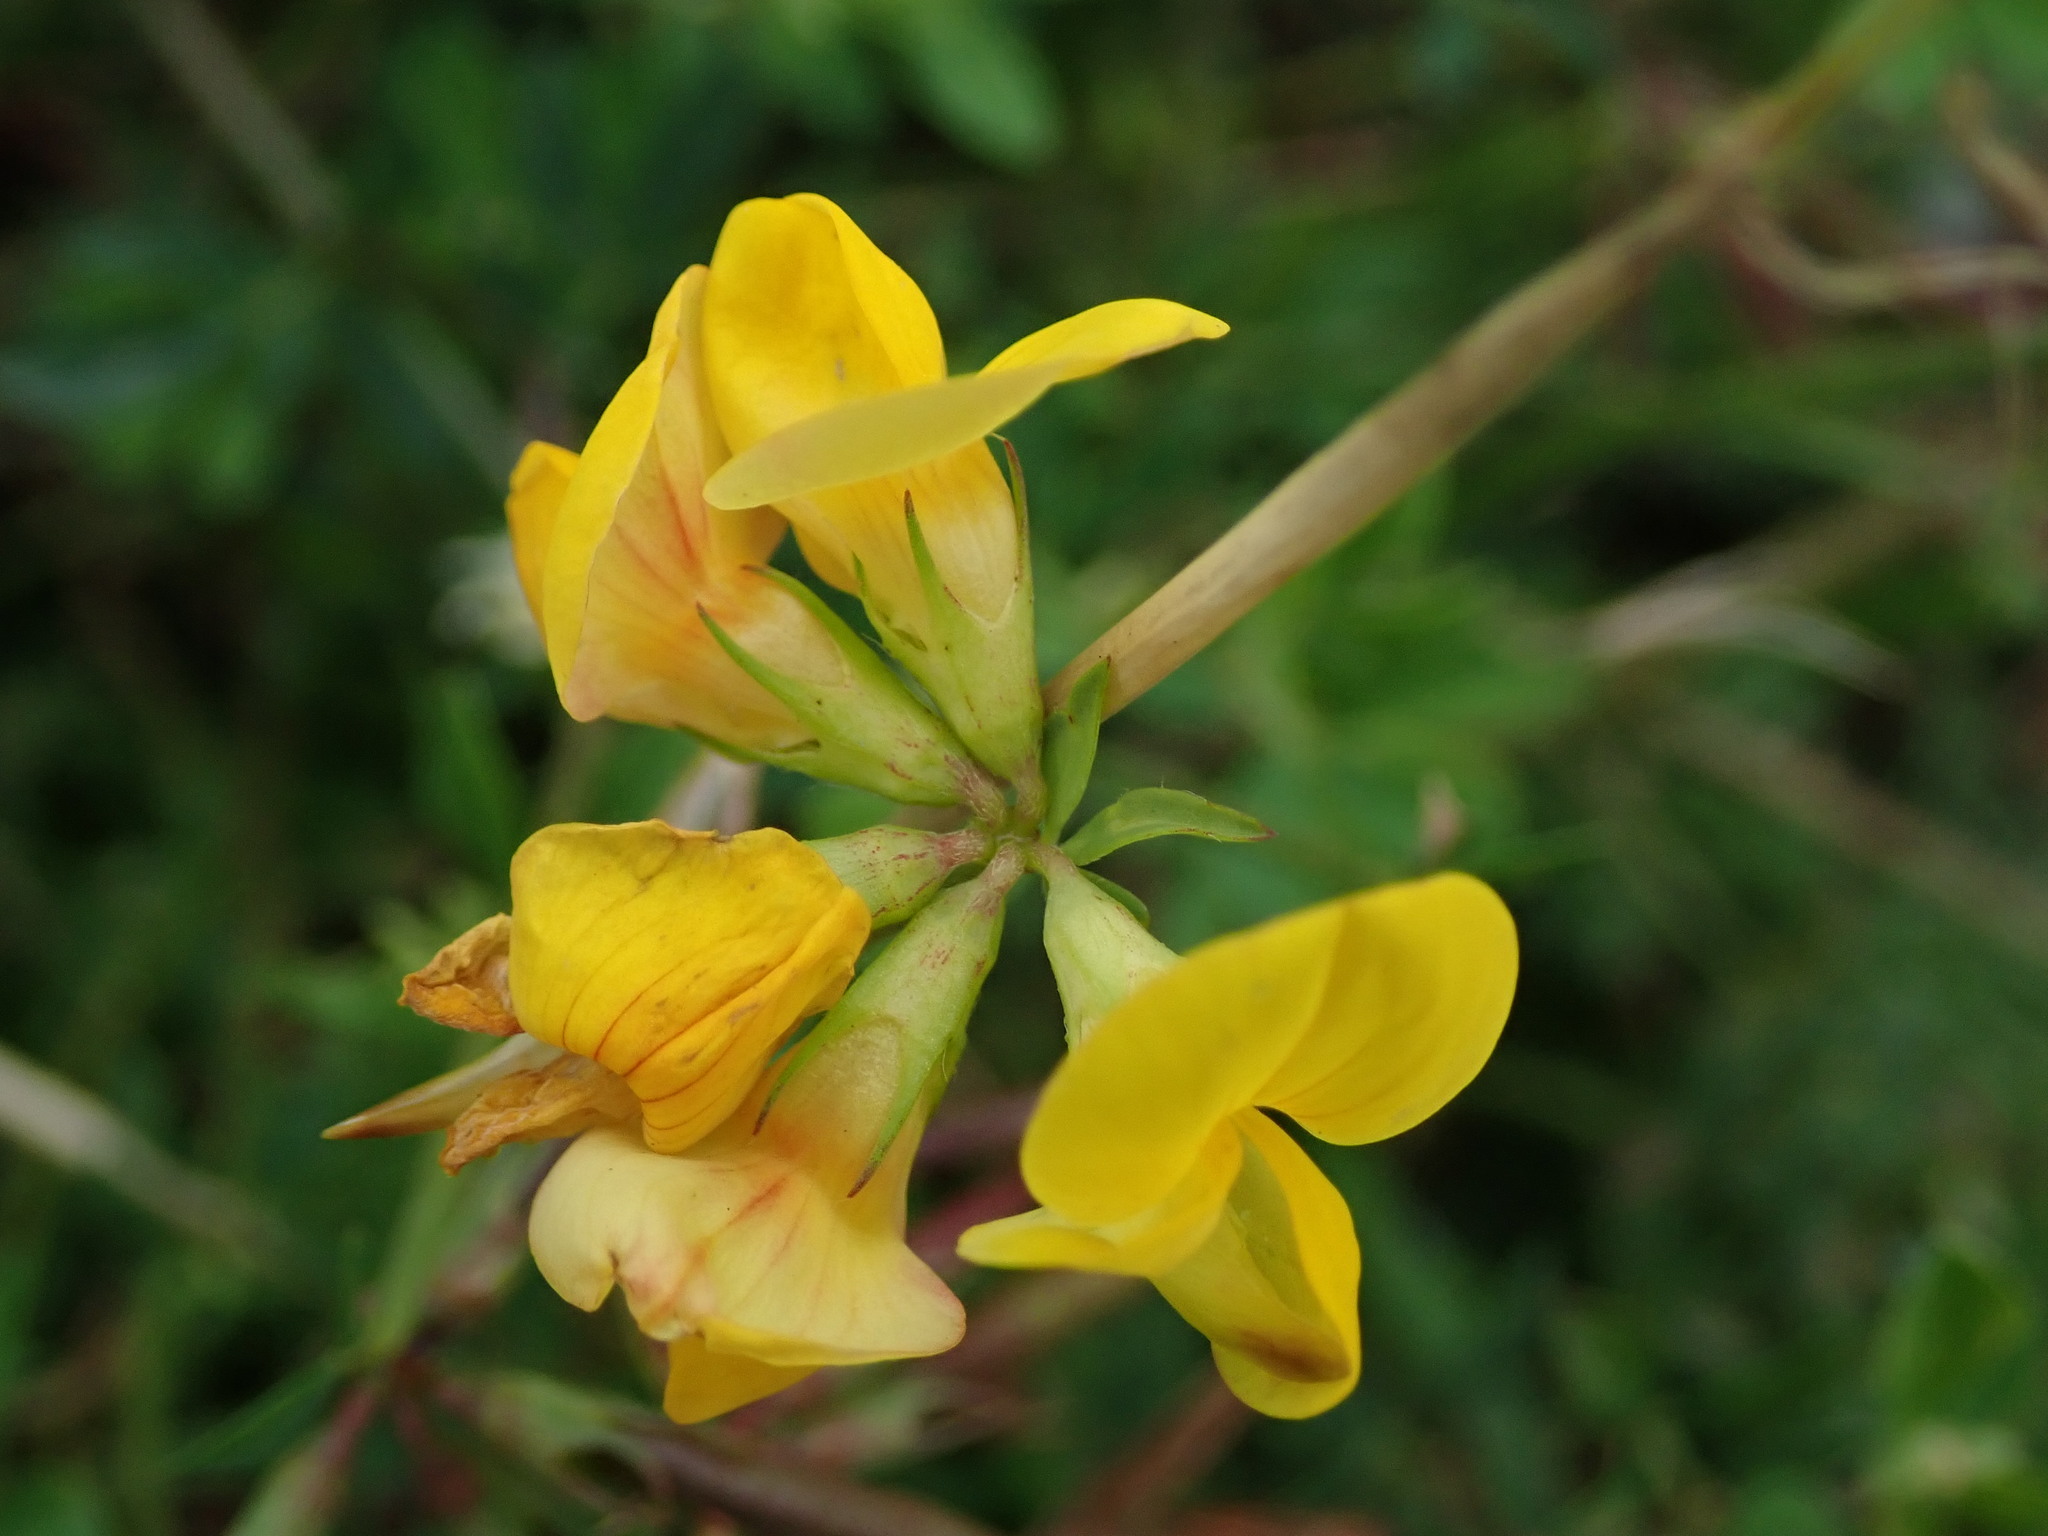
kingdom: Plantae
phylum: Tracheophyta
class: Magnoliopsida
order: Fabales
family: Fabaceae
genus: Lotus
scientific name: Lotus corniculatus
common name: Common bird's-foot-trefoil
